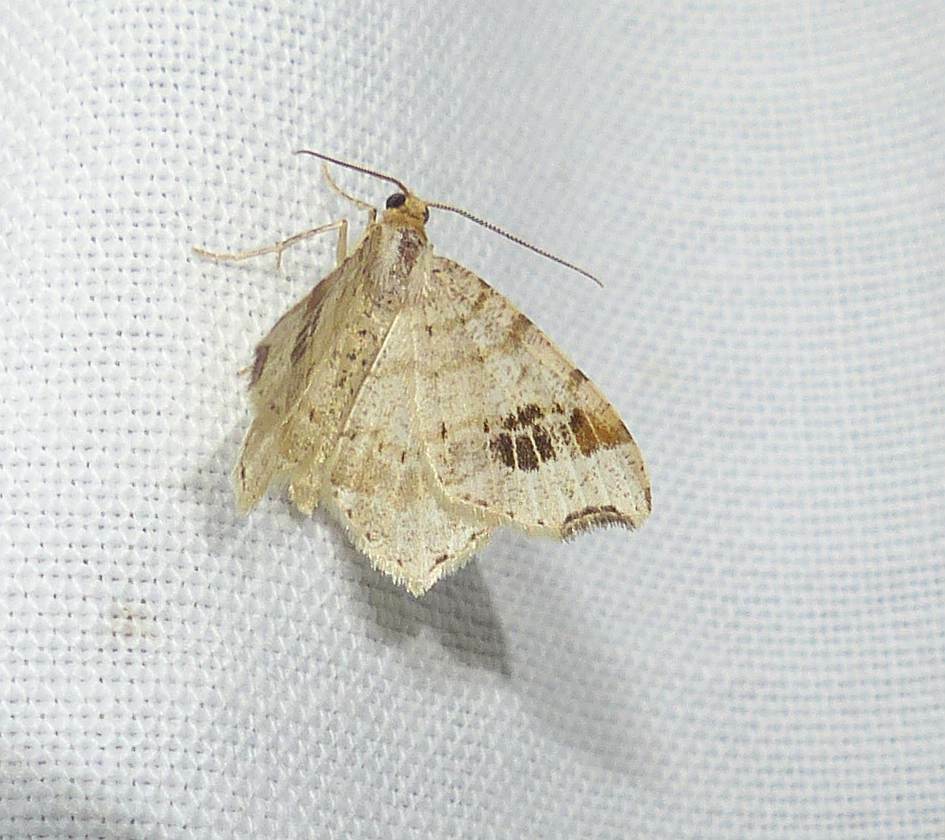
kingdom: Animalia
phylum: Arthropoda
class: Insecta
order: Lepidoptera
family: Geometridae
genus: Macaria
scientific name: Macaria aemulataria
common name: Common angle
